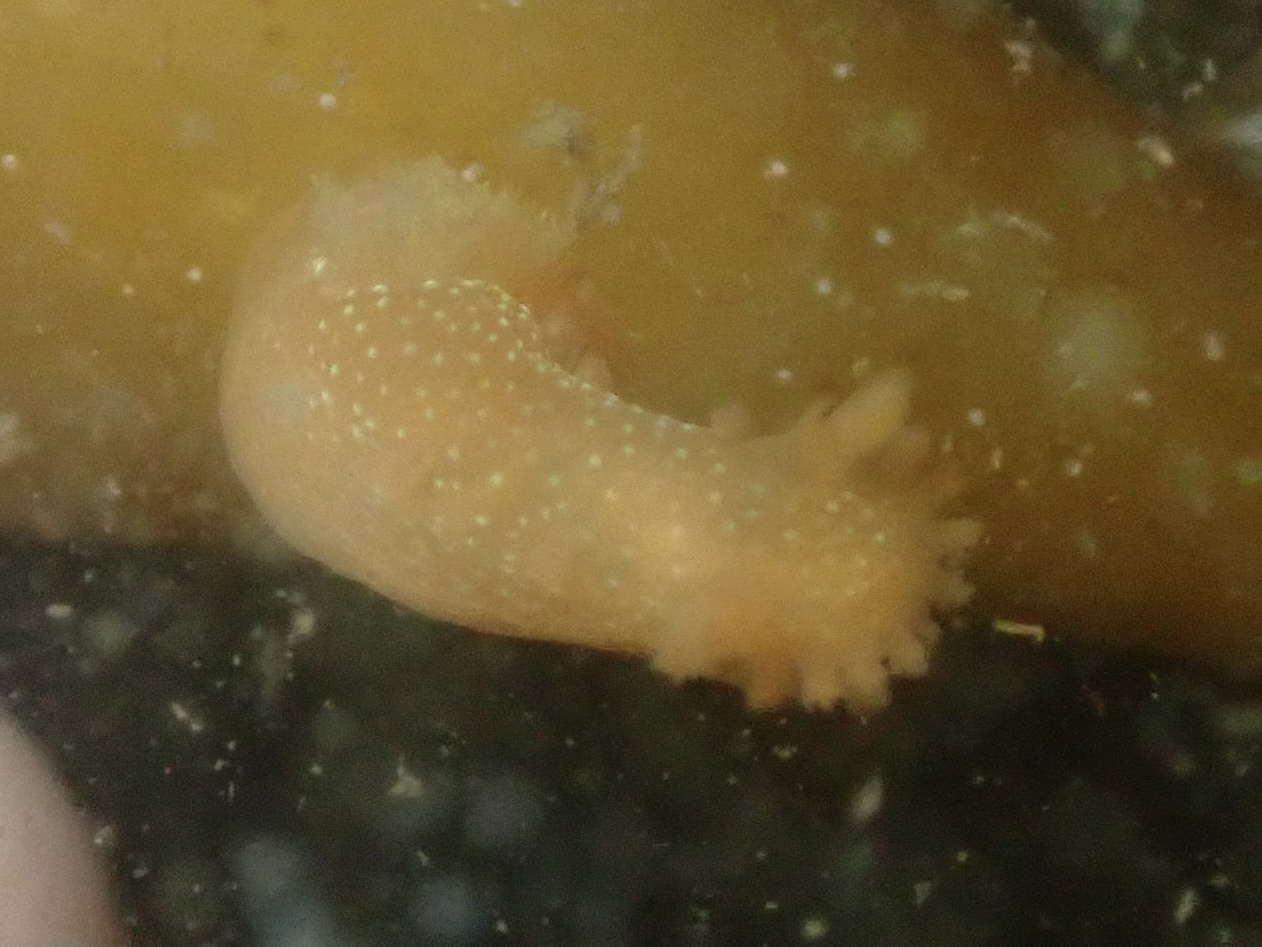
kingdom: Animalia
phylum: Mollusca
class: Gastropoda
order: Nudibranchia
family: Polyceridae
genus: Triopha
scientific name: Triopha maculata
